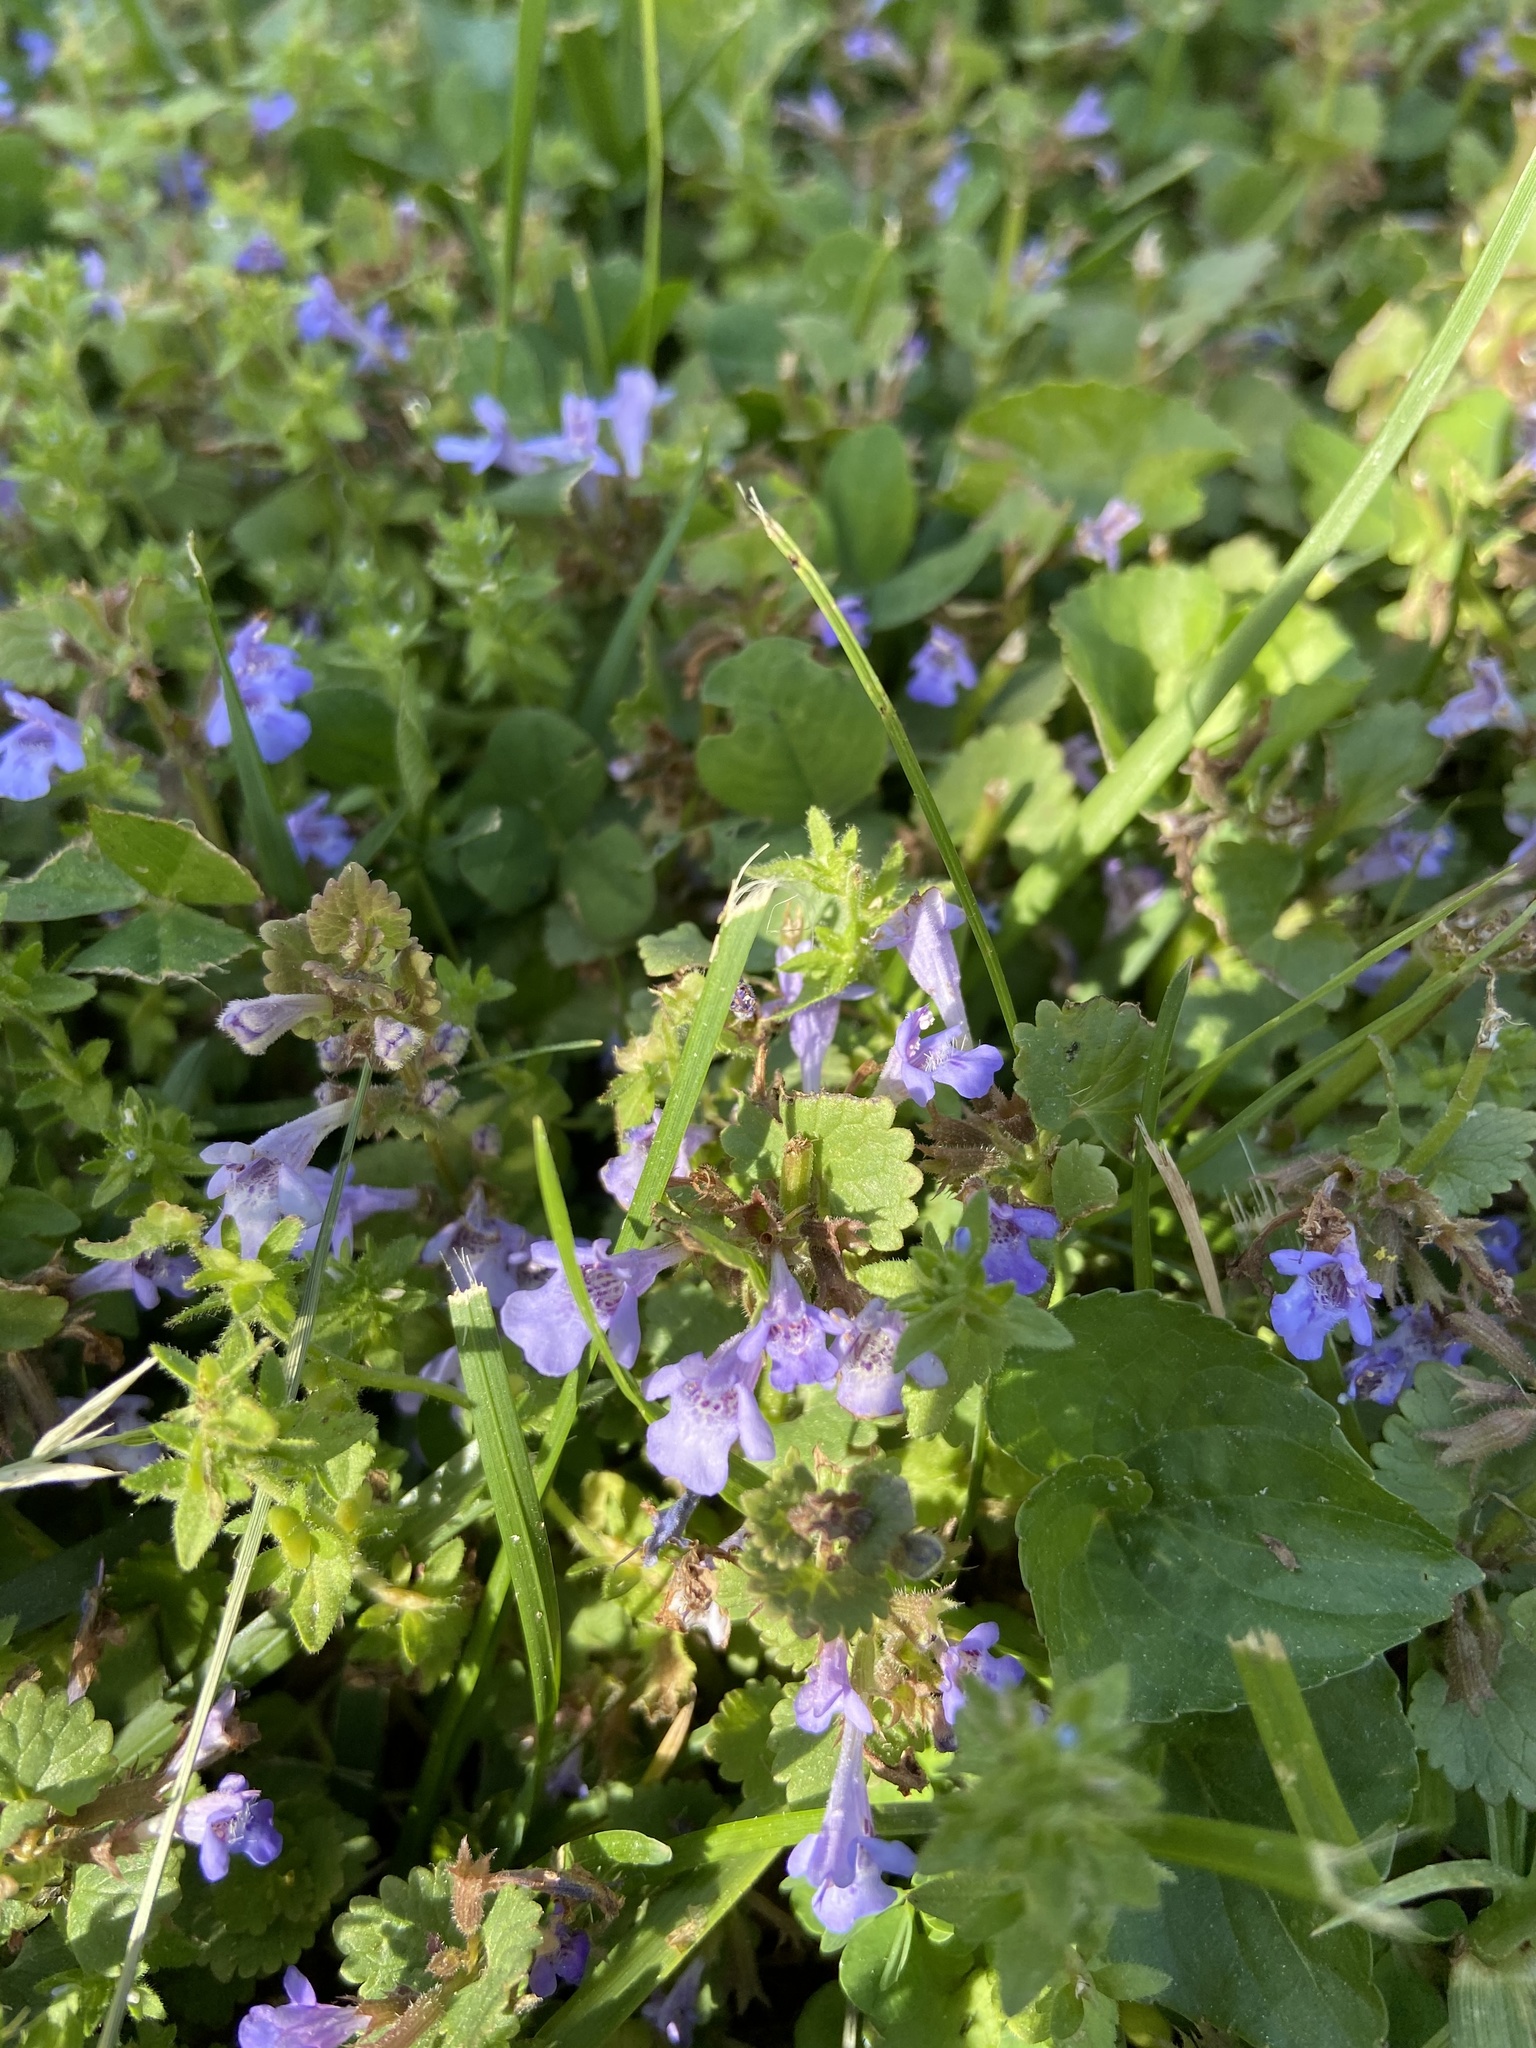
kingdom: Plantae
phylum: Tracheophyta
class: Magnoliopsida
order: Lamiales
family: Lamiaceae
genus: Glechoma
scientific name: Glechoma hederacea
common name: Ground ivy
